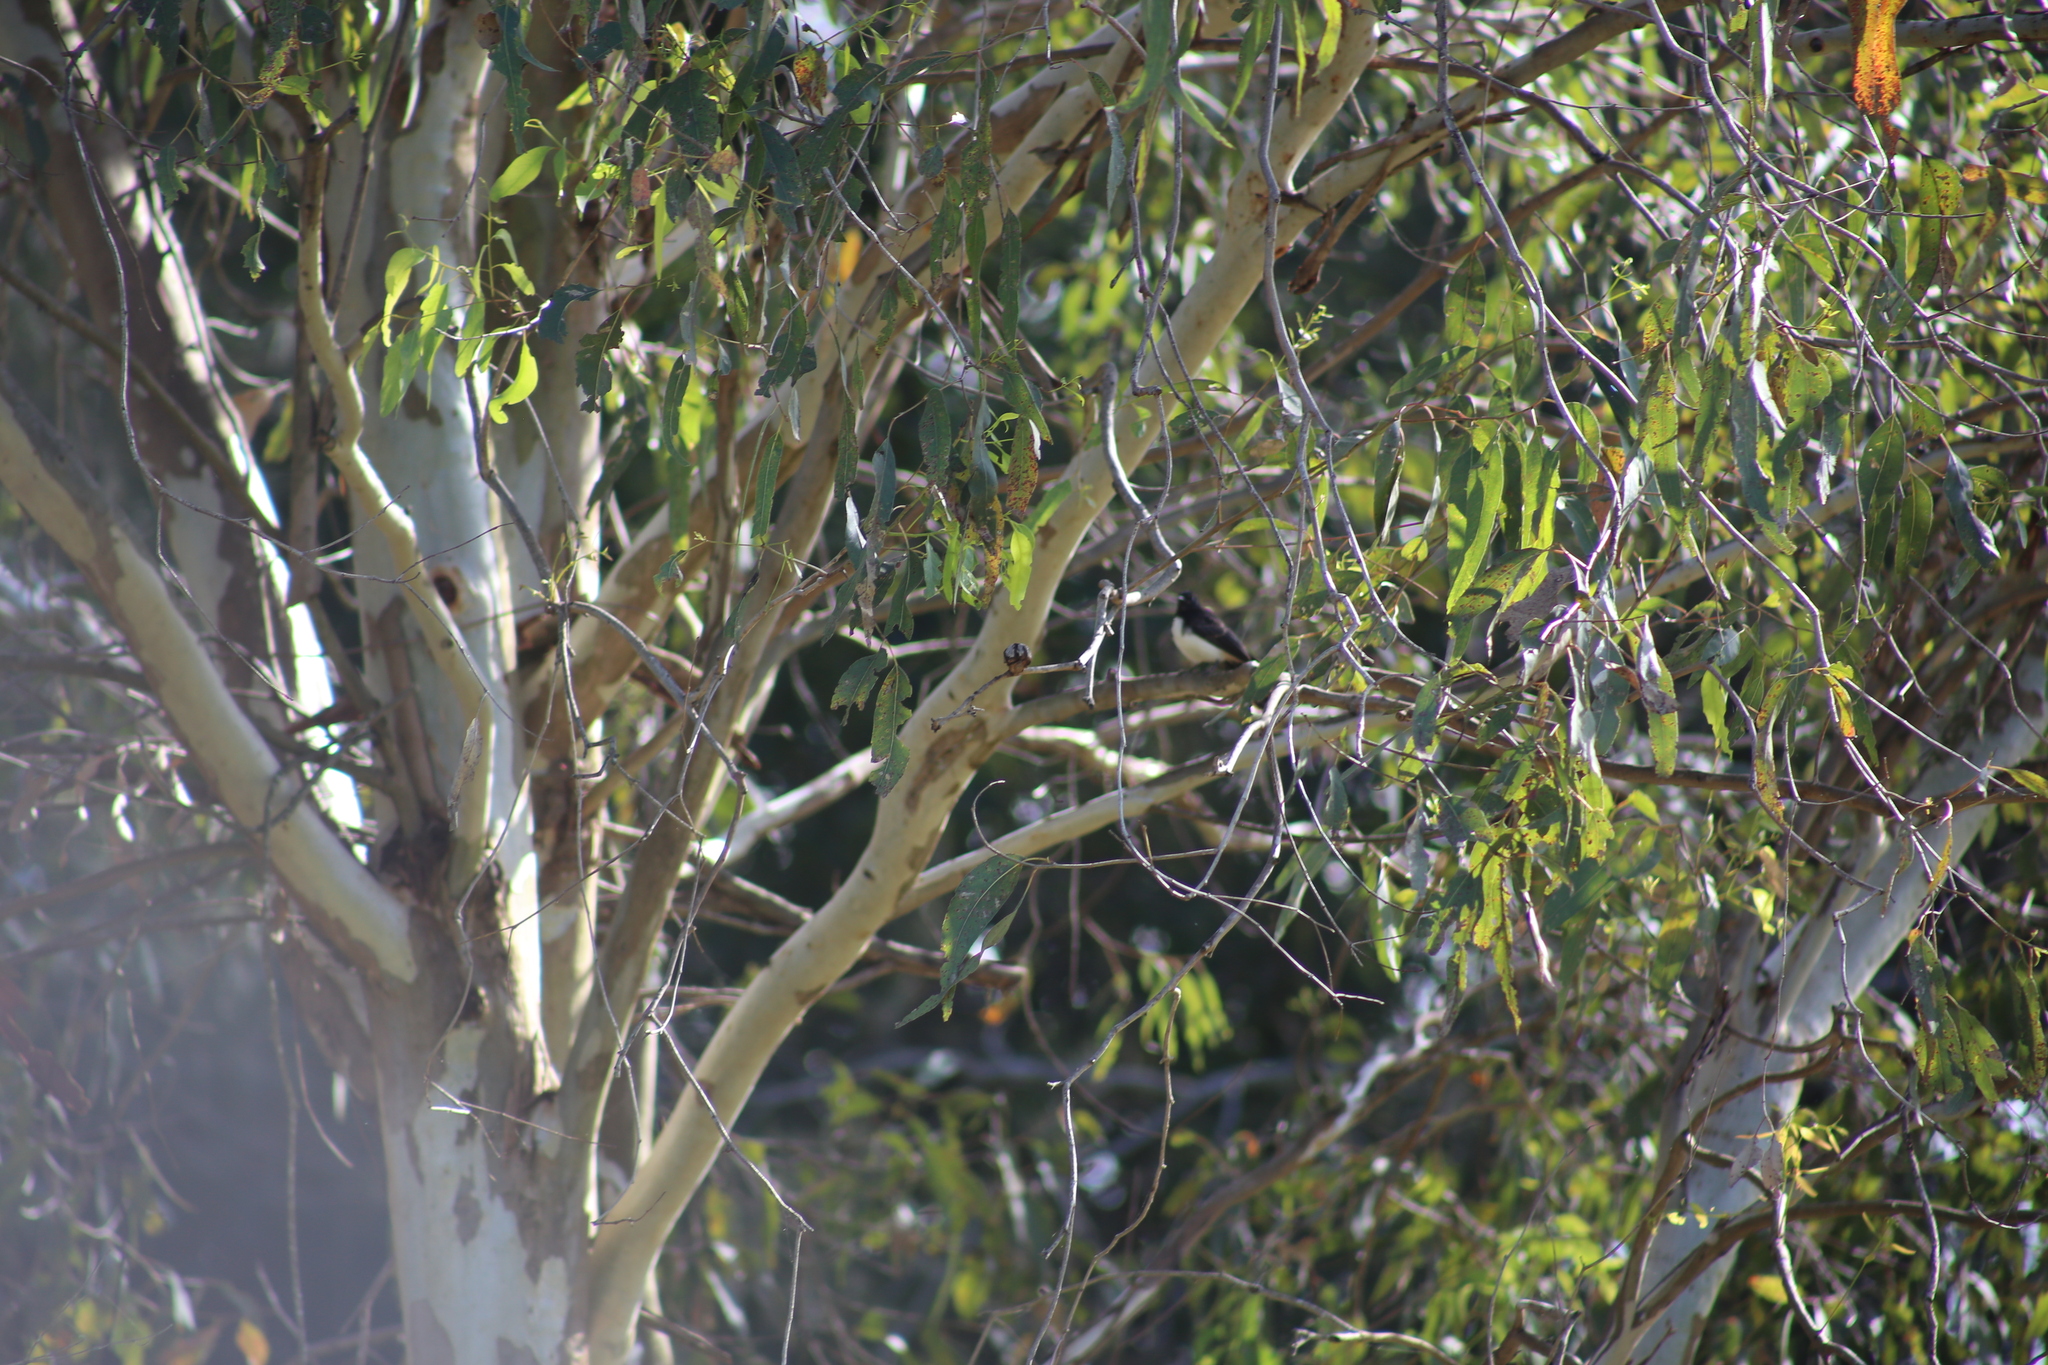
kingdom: Animalia
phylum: Chordata
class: Aves
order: Passeriformes
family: Rhipiduridae
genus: Rhipidura
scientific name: Rhipidura leucophrys
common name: Willie wagtail
